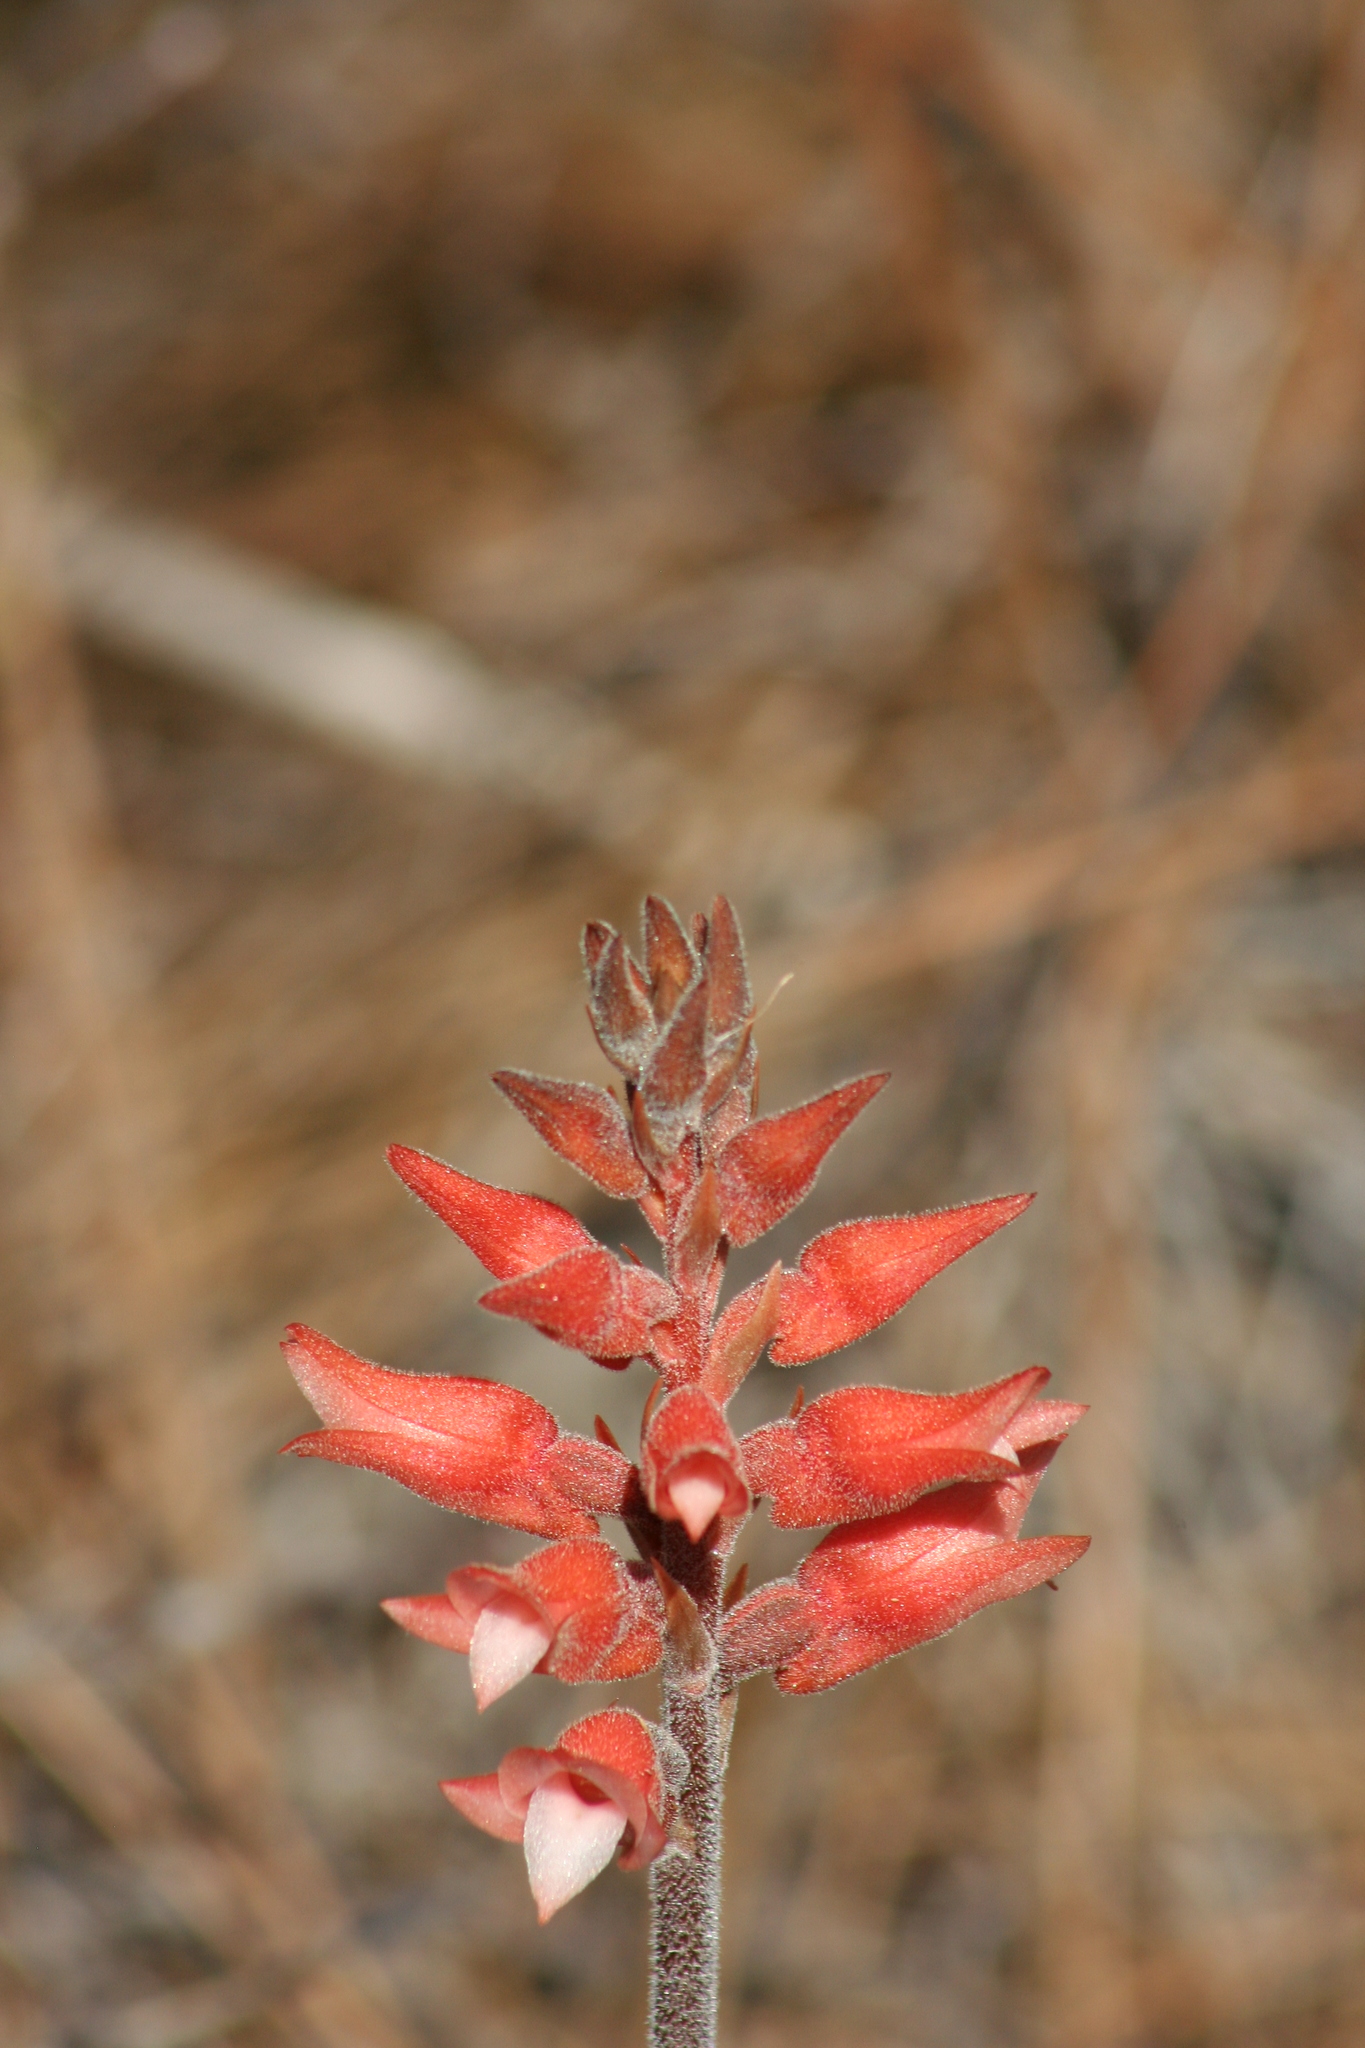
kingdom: Plantae
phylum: Tracheophyta
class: Liliopsida
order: Asparagales
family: Orchidaceae
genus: Sacoila
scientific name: Sacoila lanceolata
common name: Leafless beaked ladiestresses
